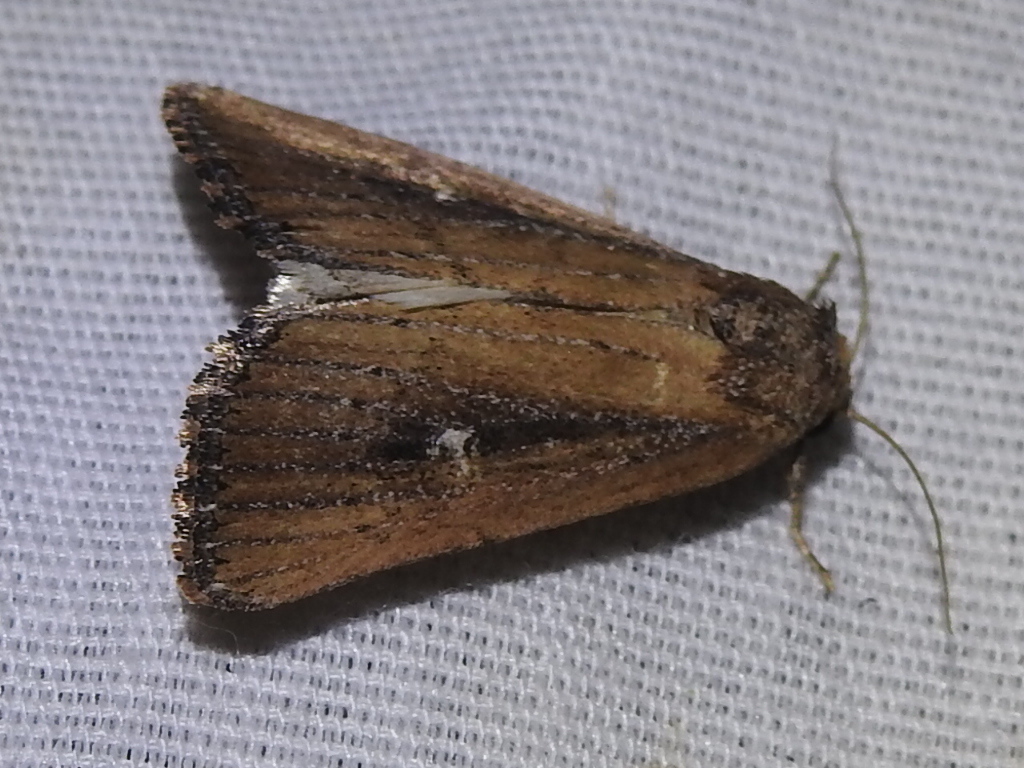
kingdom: Animalia
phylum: Arthropoda
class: Insecta
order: Lepidoptera
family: Noctuidae
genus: Condica
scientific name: Condica videns
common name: White-dotted groundling
